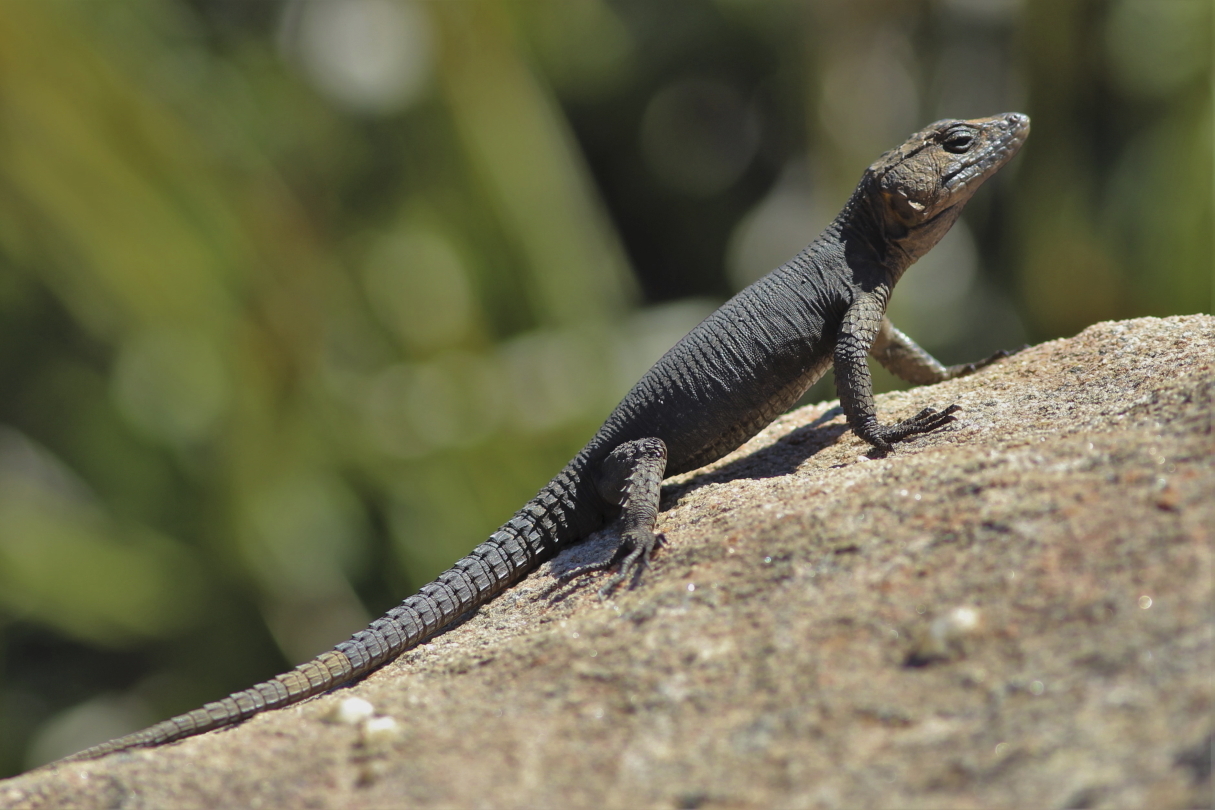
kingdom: Animalia
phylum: Chordata
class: Squamata
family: Cordylidae
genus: Hemicordylus
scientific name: Hemicordylus capensis
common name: Graceful crag lizard
